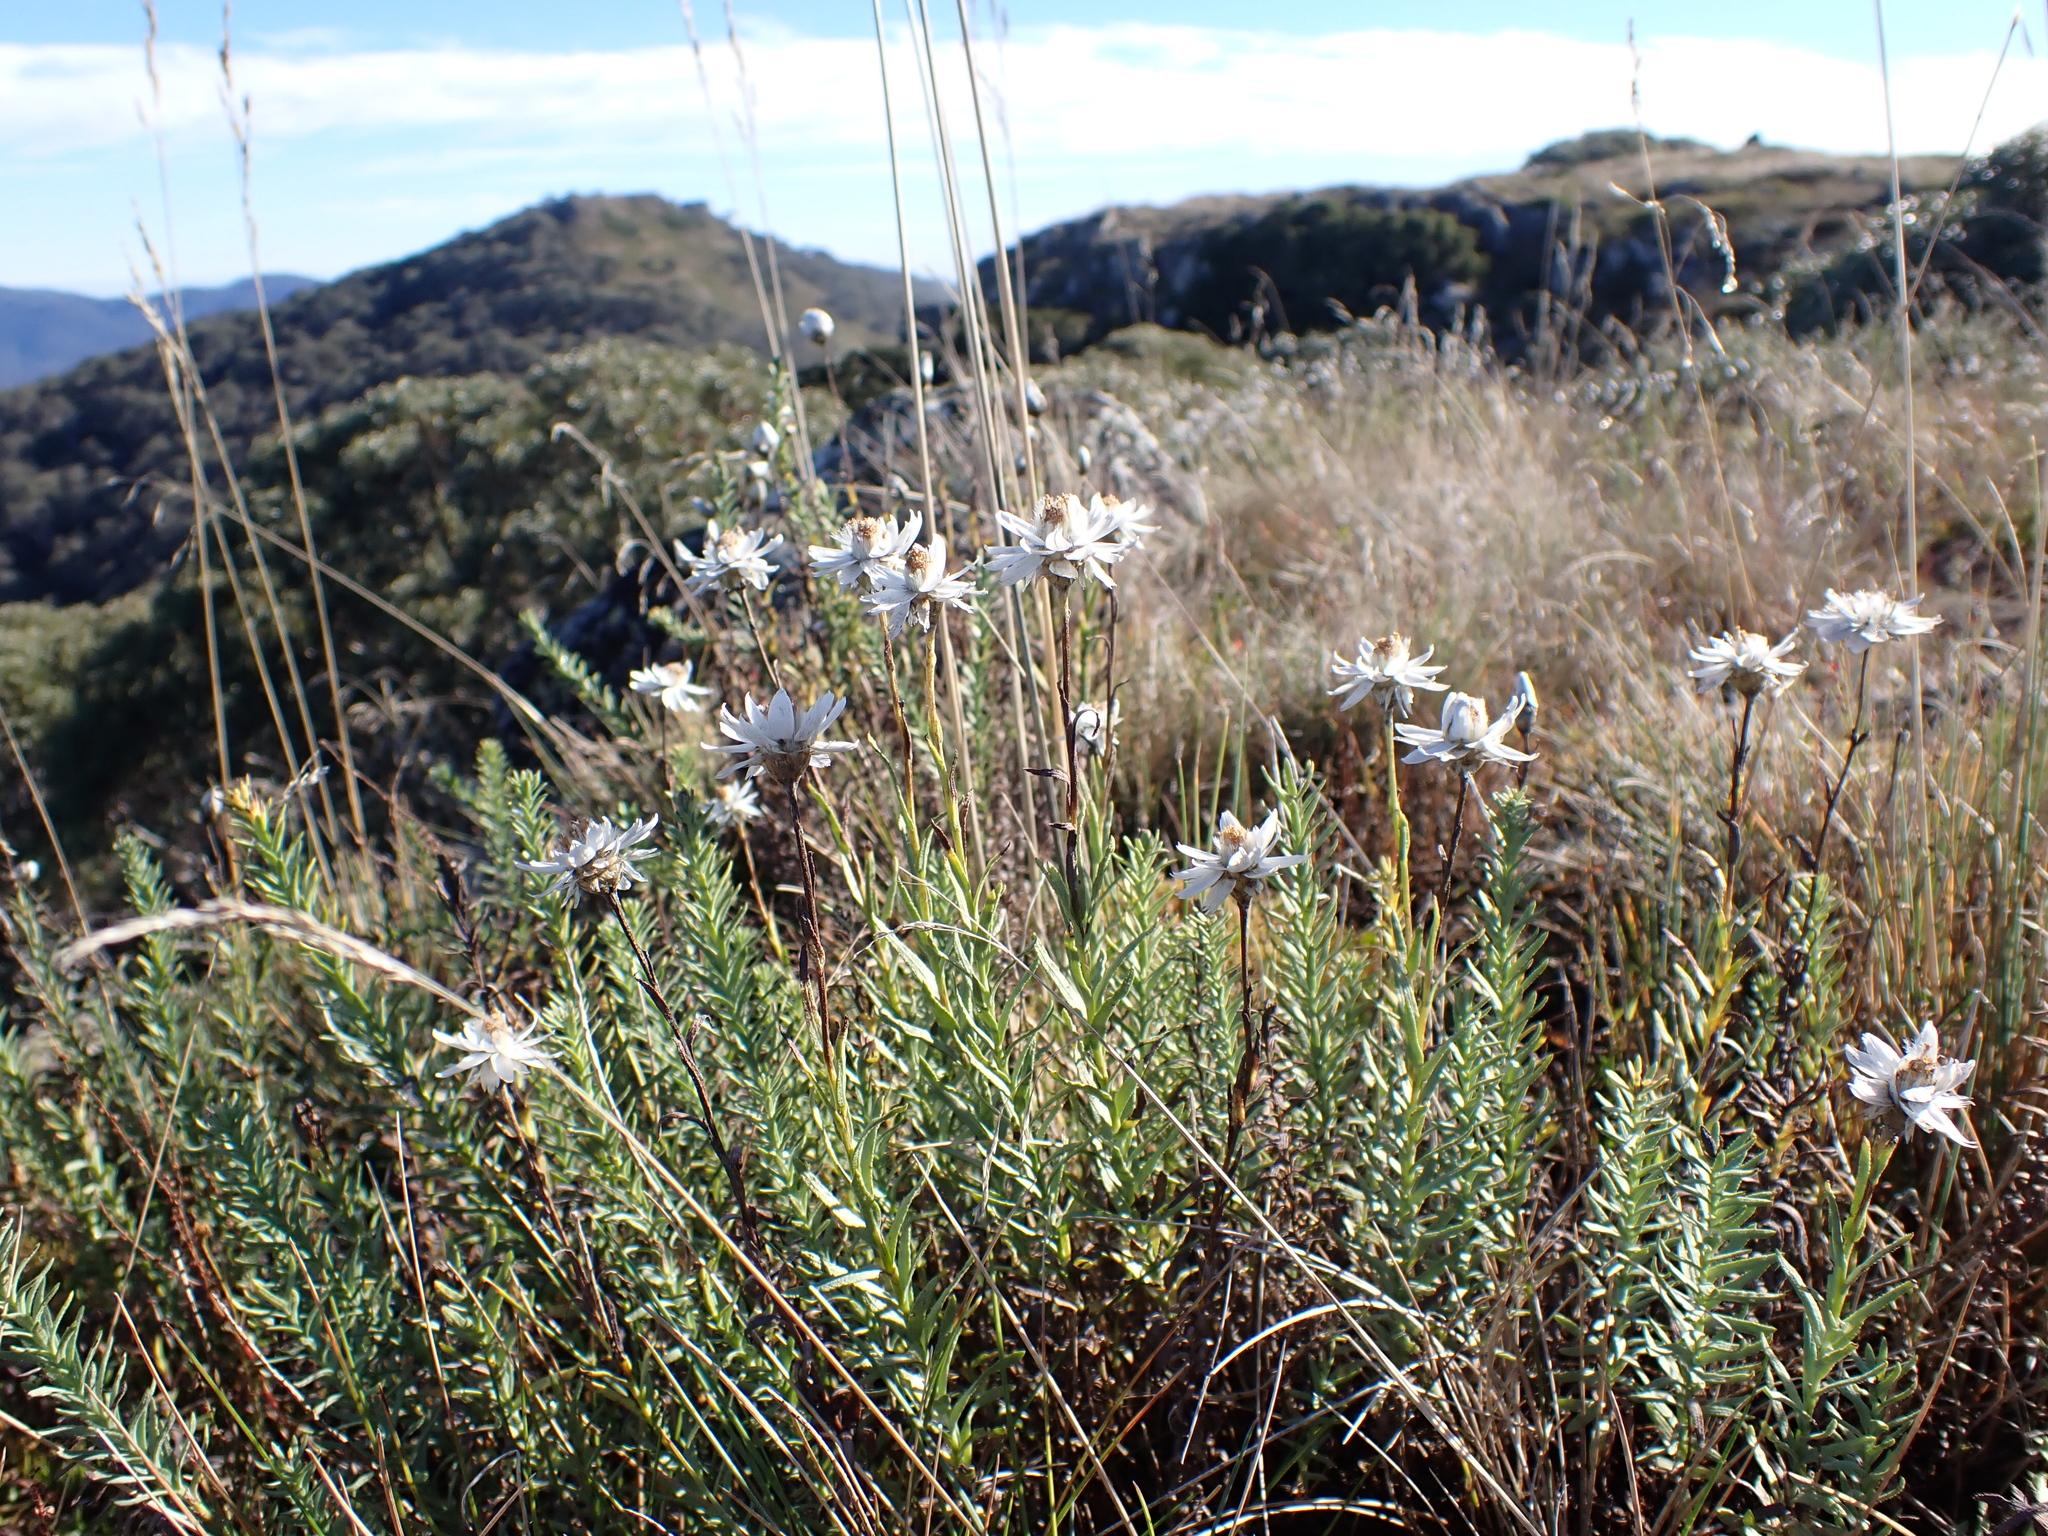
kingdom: Plantae
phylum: Tracheophyta
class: Magnoliopsida
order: Asterales
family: Asteraceae
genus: Rhodanthe
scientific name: Rhodanthe anthemoides
